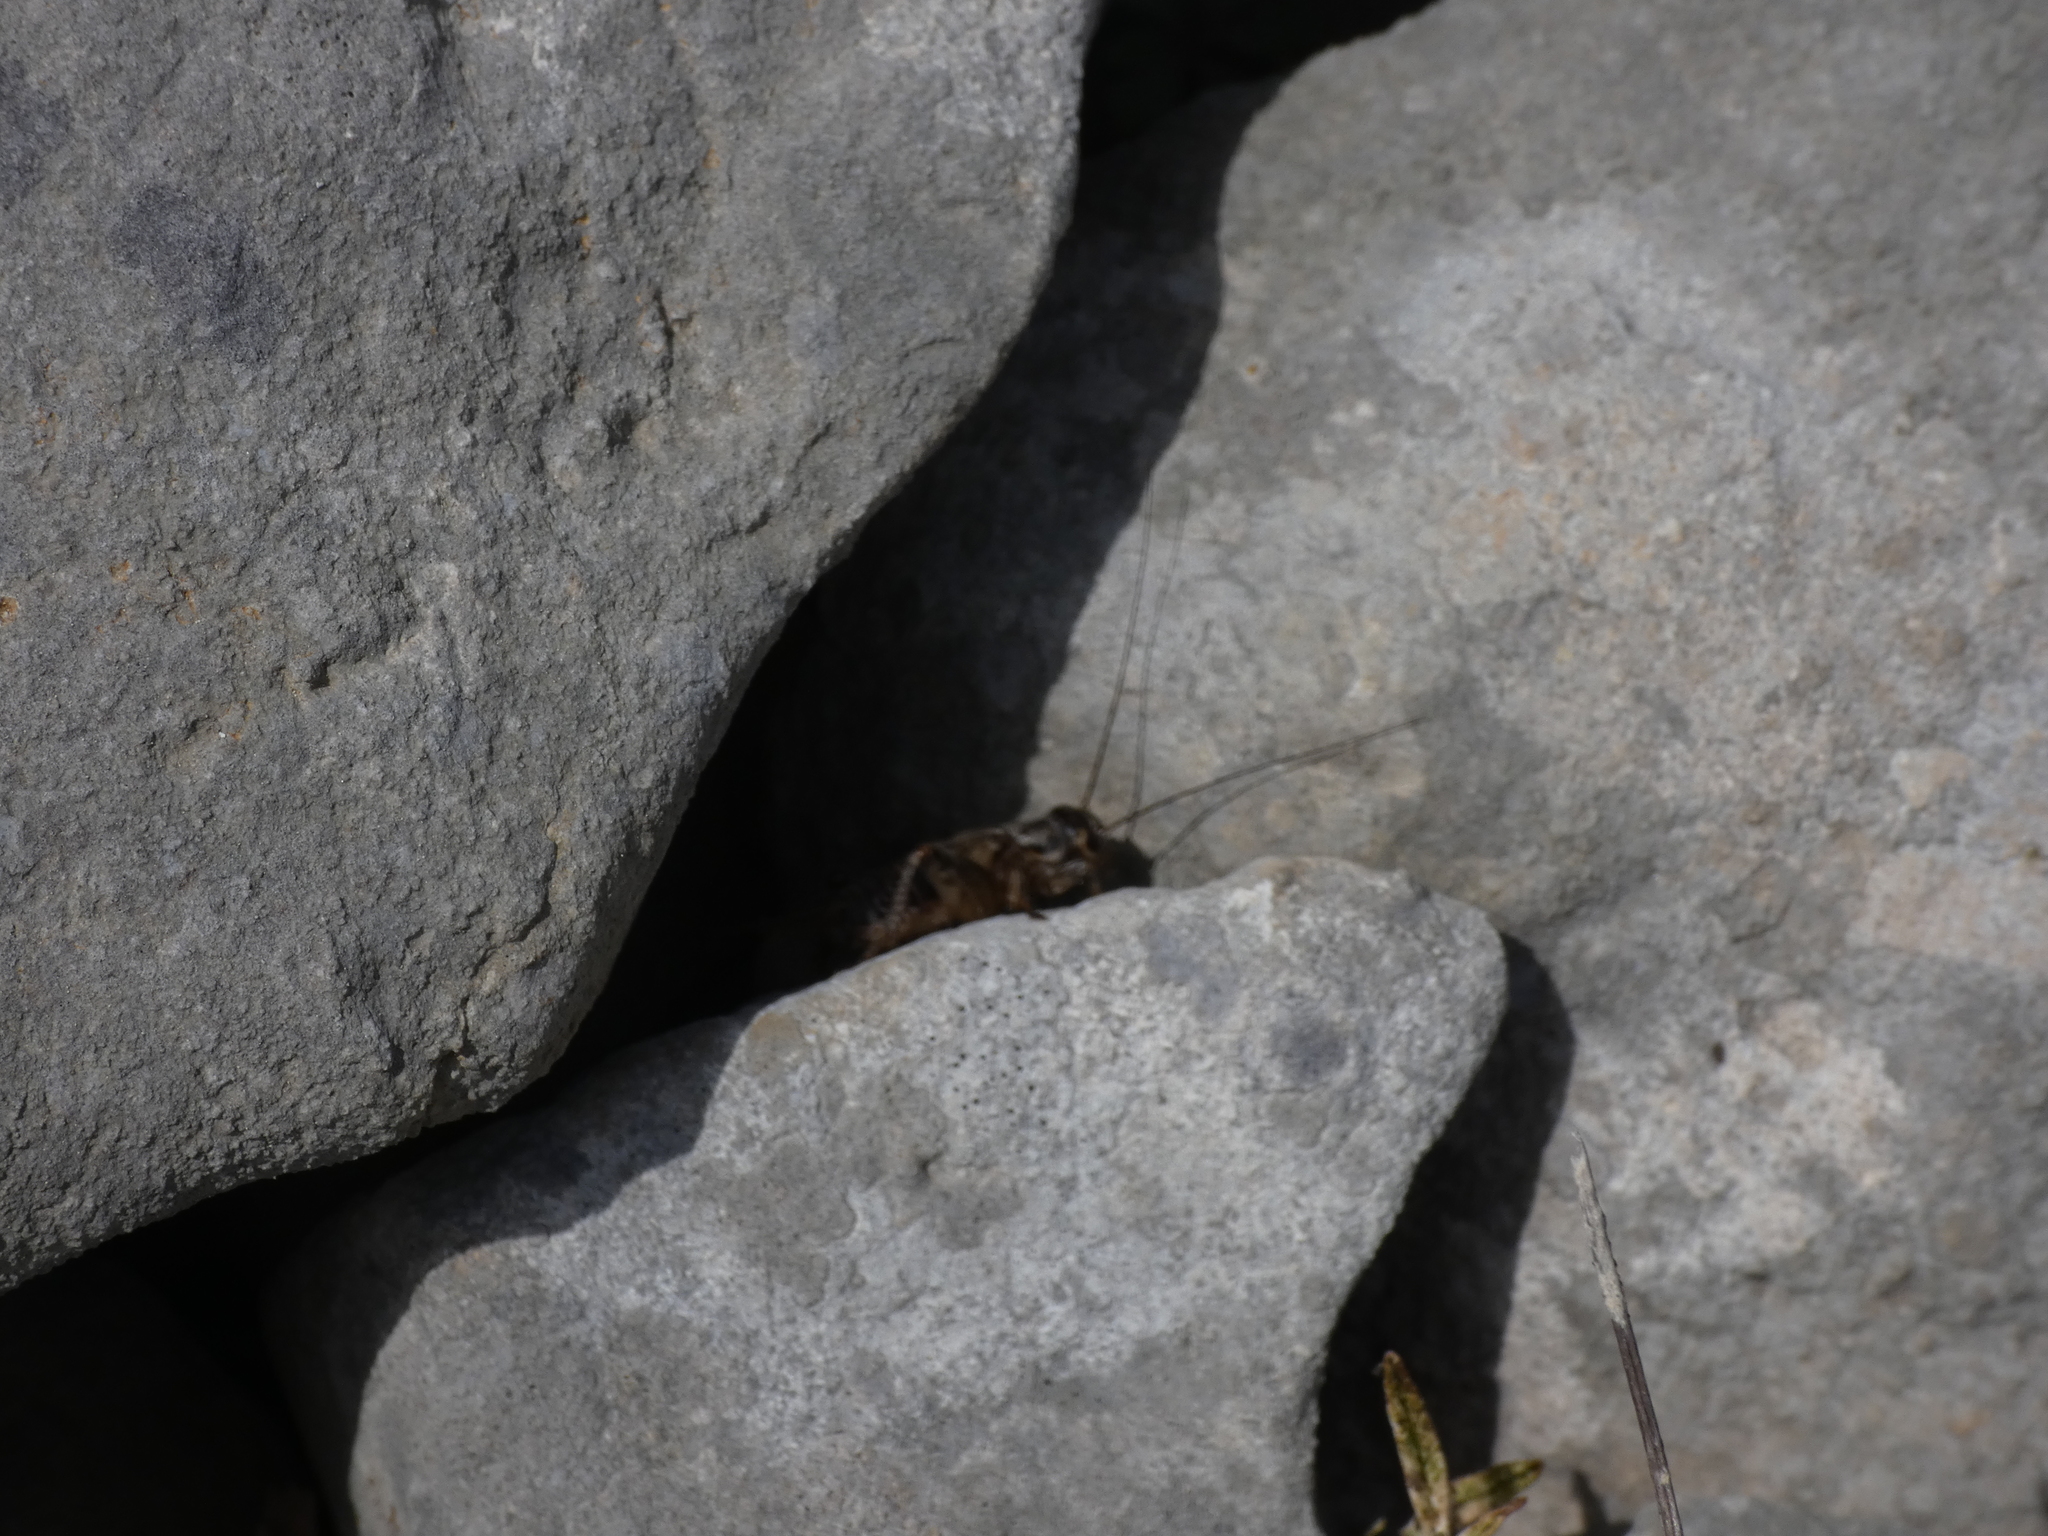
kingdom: Animalia
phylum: Arthropoda
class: Insecta
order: Orthoptera
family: Trigonidiidae
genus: Nemobius
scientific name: Nemobius sylvestris
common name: Wood-cricket
